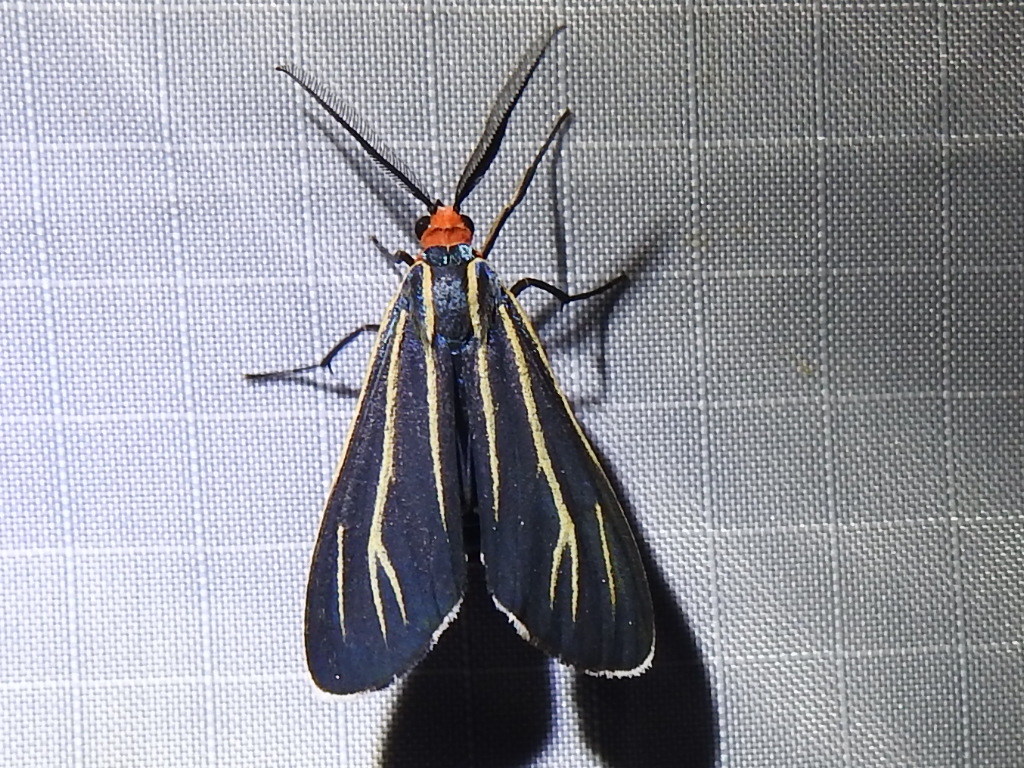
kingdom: Animalia
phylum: Arthropoda
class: Insecta
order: Lepidoptera
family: Erebidae
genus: Ctenucha
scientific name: Ctenucha venosa
